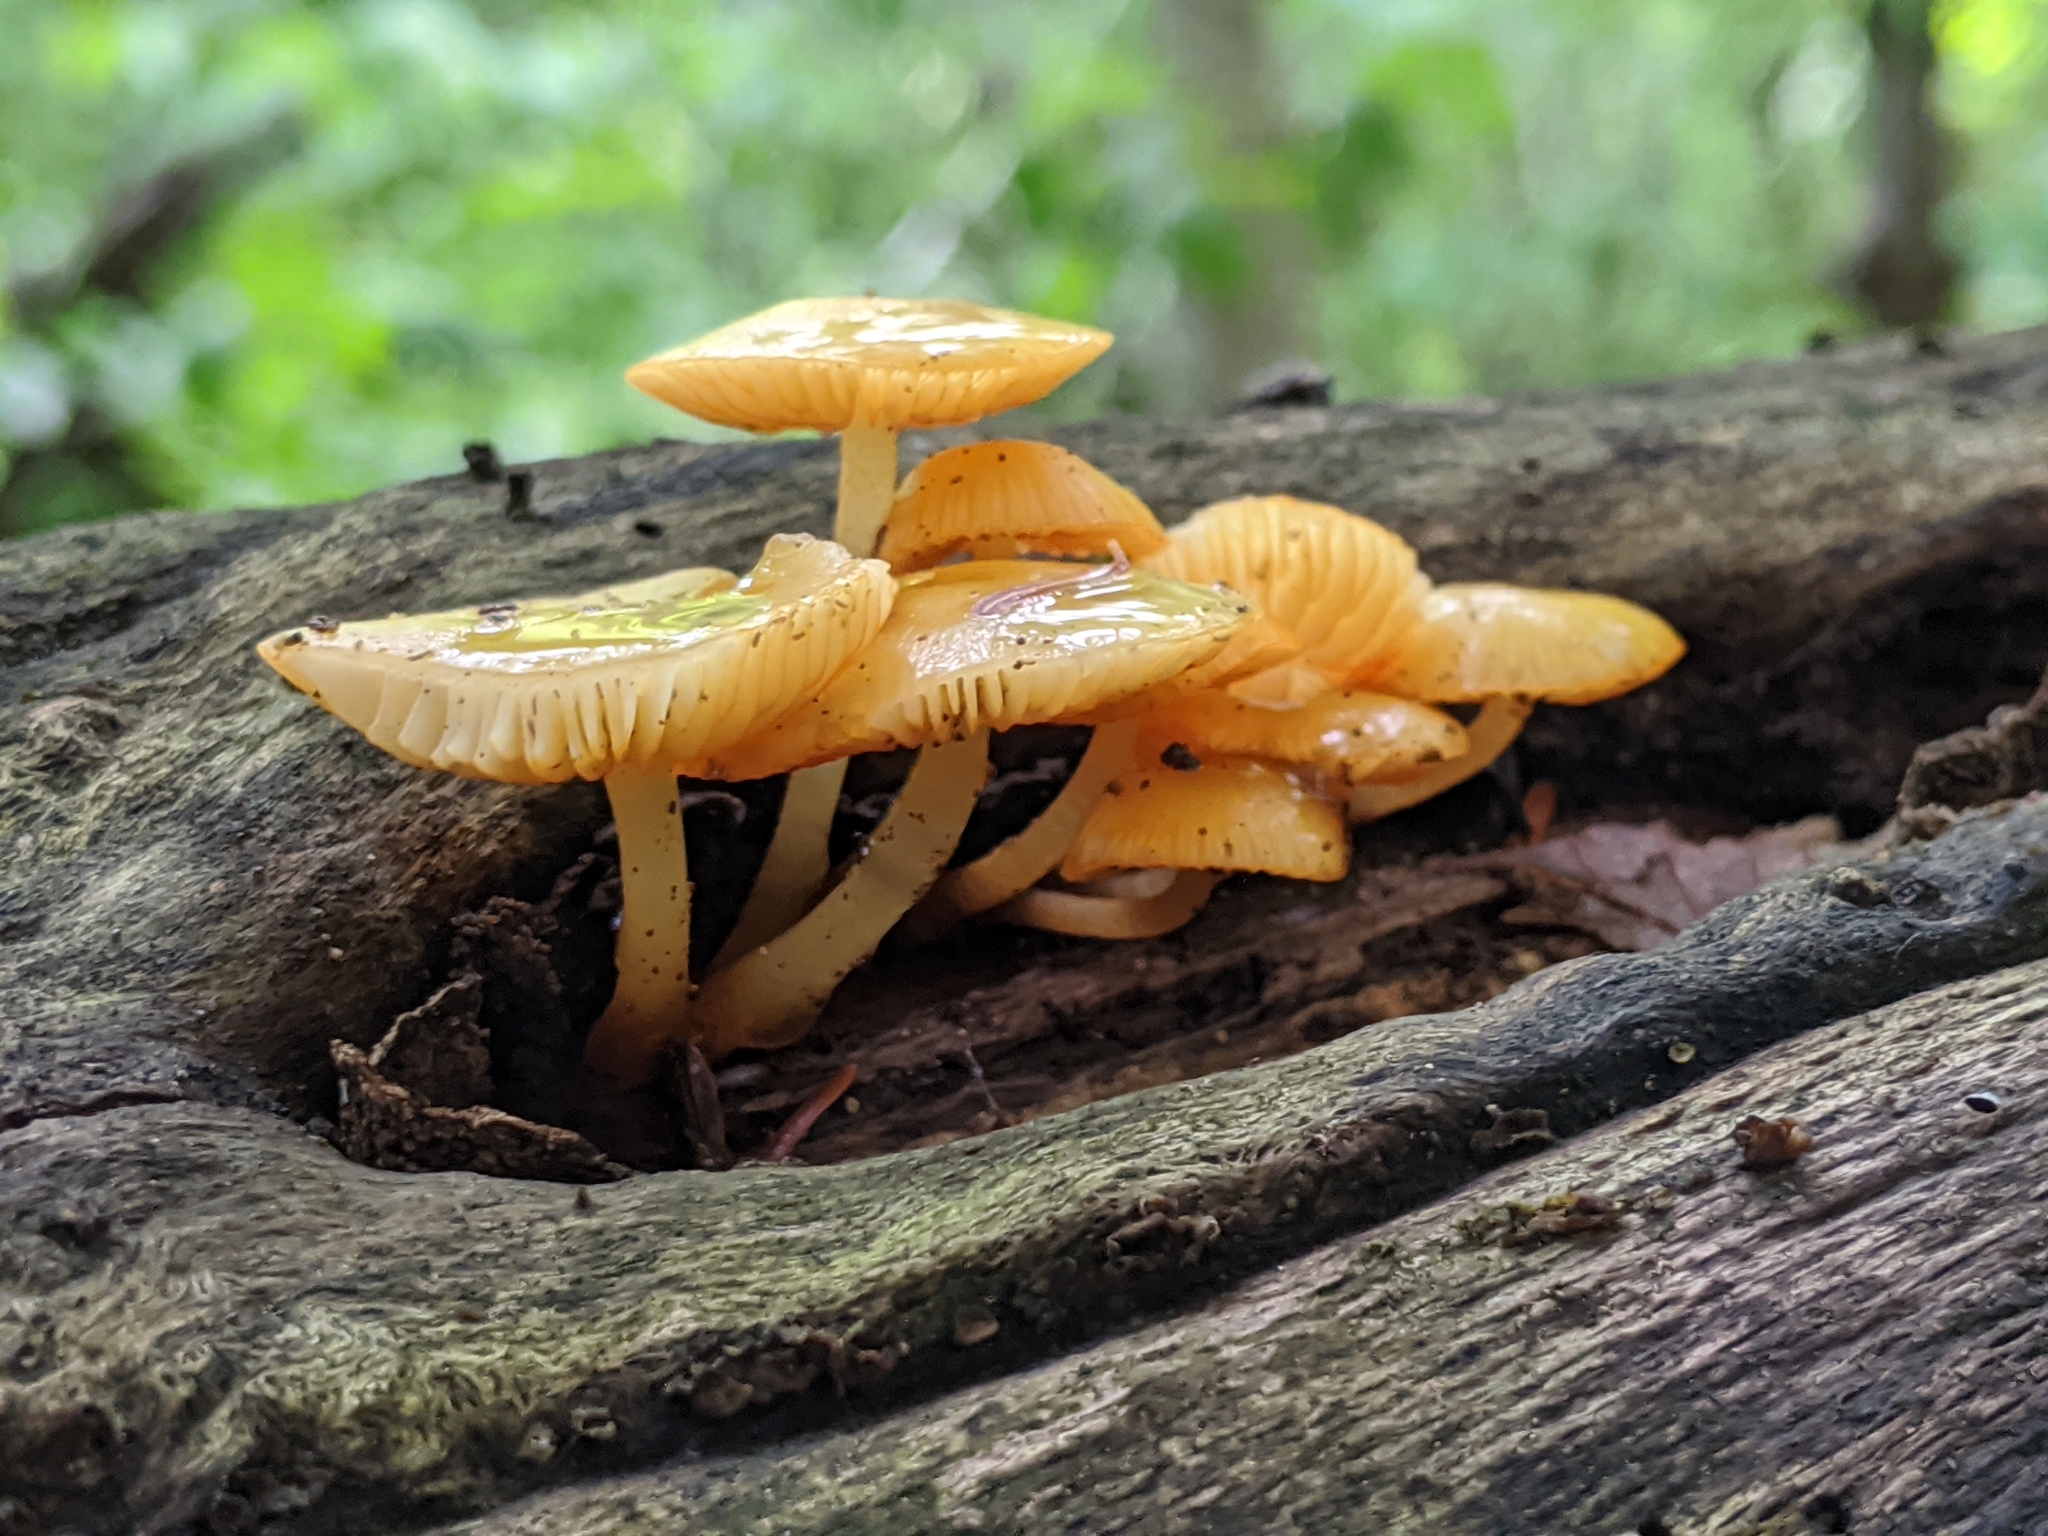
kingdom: Fungi
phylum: Basidiomycota
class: Agaricomycetes
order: Agaricales
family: Mycenaceae
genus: Mycena
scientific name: Mycena leaiana
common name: Orange mycena
